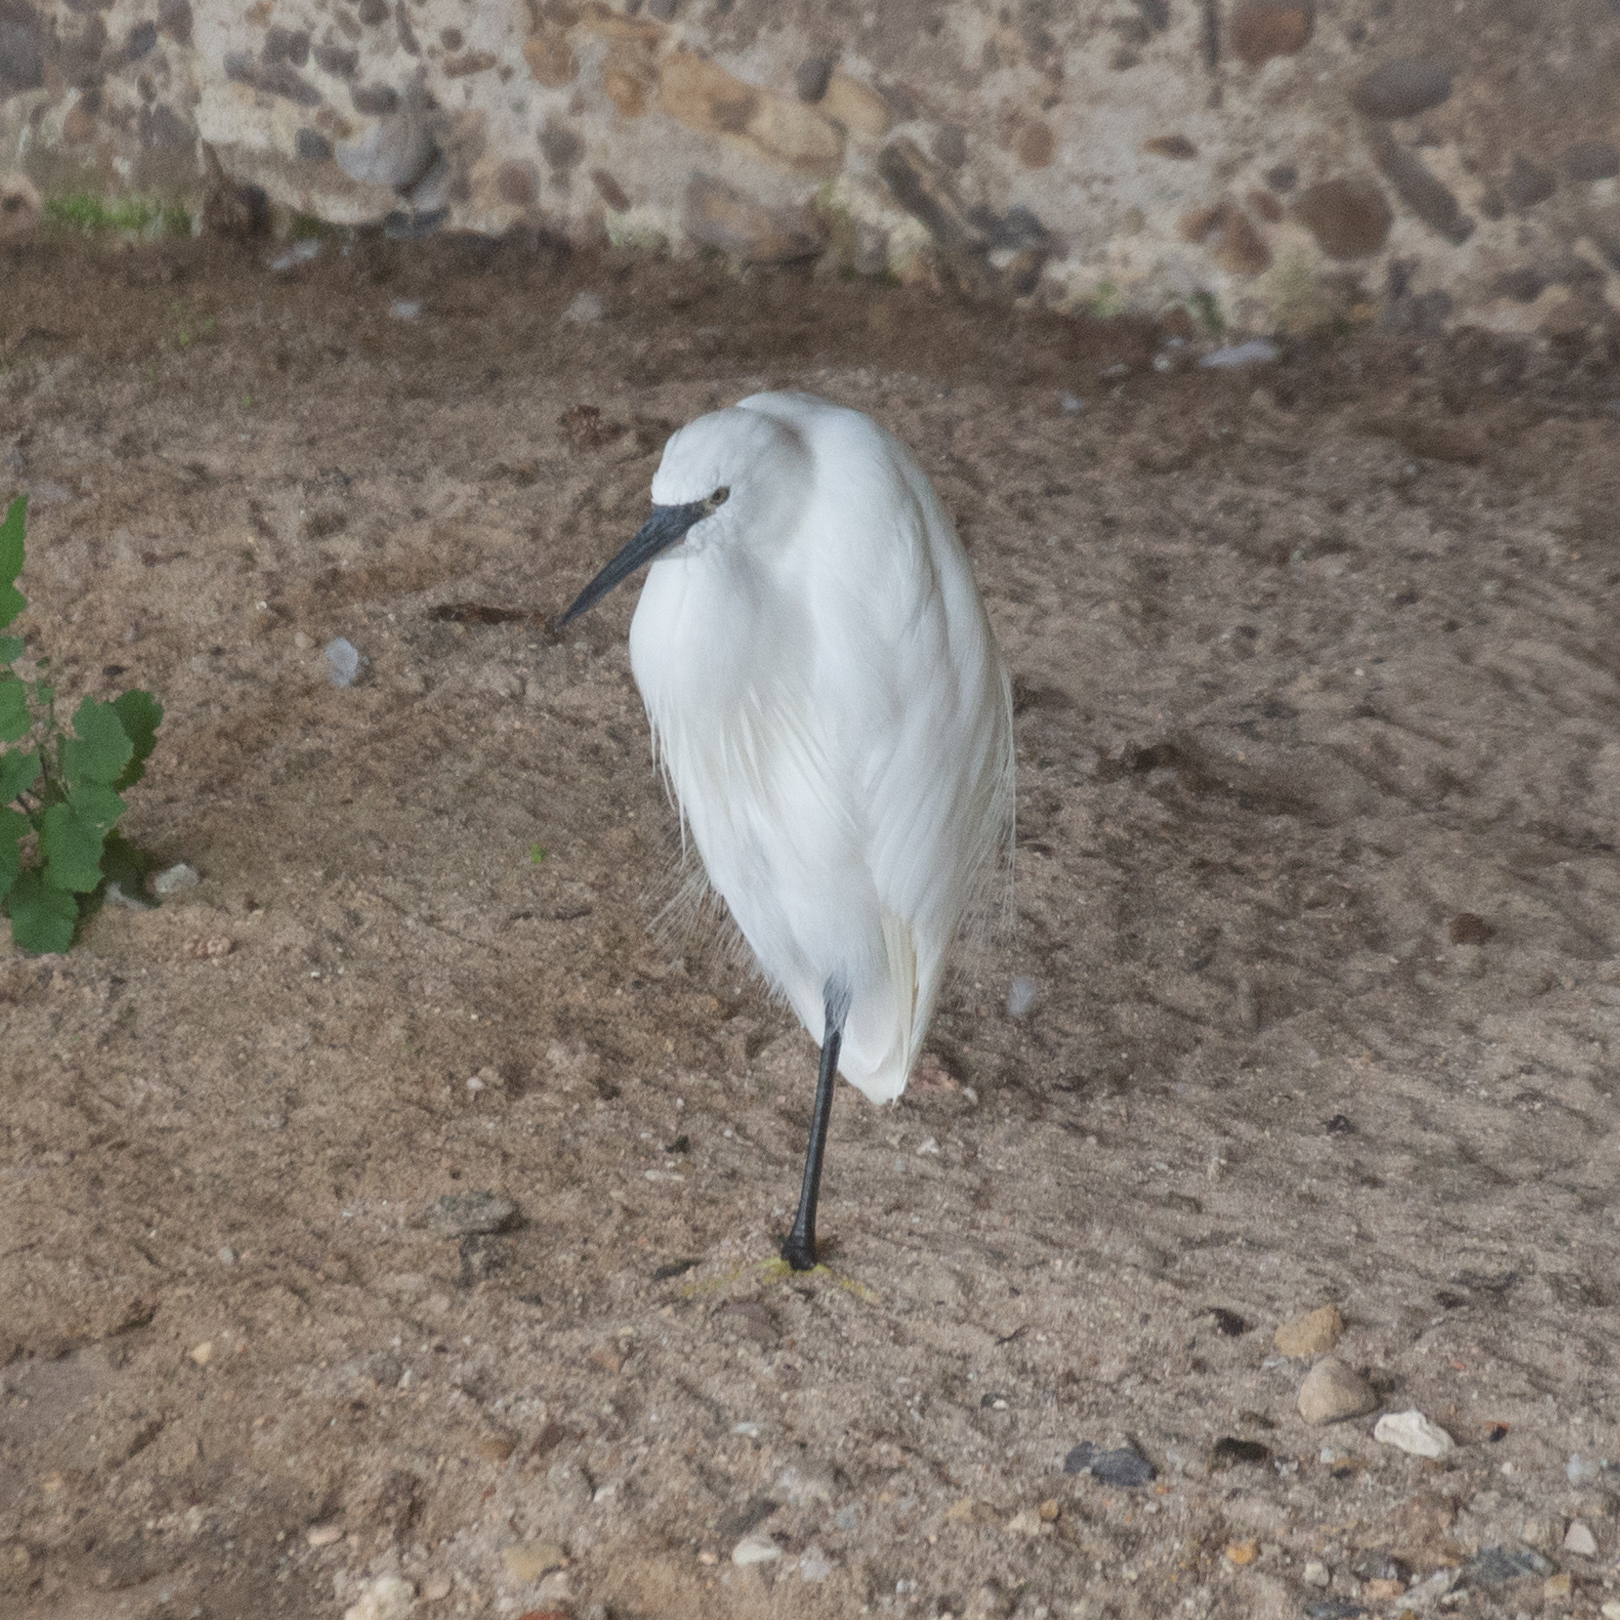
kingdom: Animalia
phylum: Chordata
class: Aves
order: Pelecaniformes
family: Ardeidae
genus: Egretta
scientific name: Egretta garzetta
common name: Little egret
